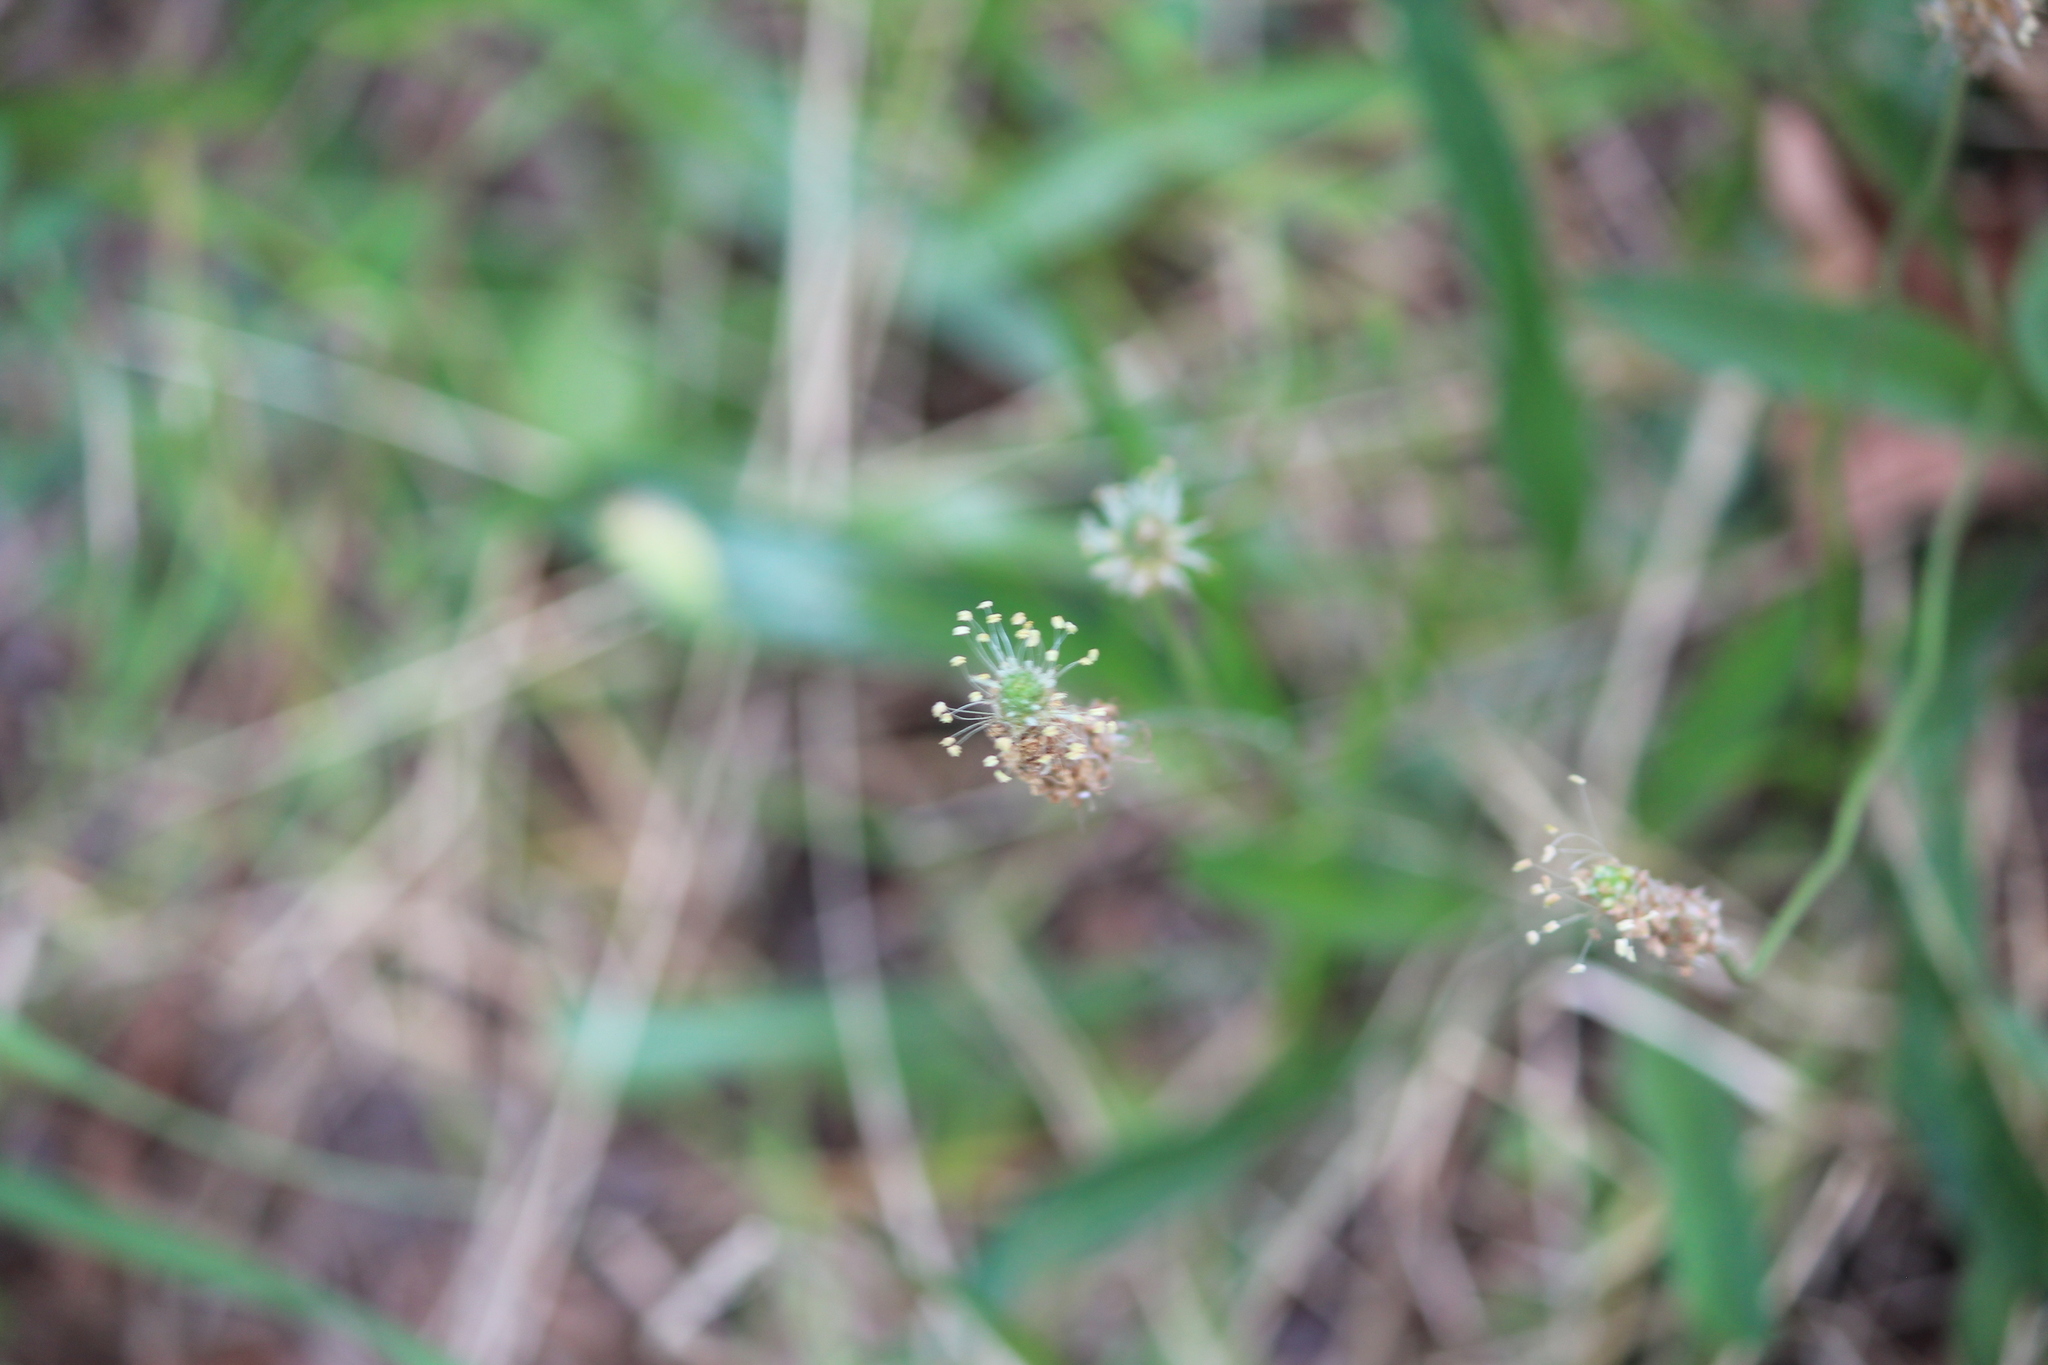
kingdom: Plantae
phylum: Tracheophyta
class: Magnoliopsida
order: Lamiales
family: Plantaginaceae
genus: Plantago
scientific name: Plantago lanceolata
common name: Ribwort plantain
